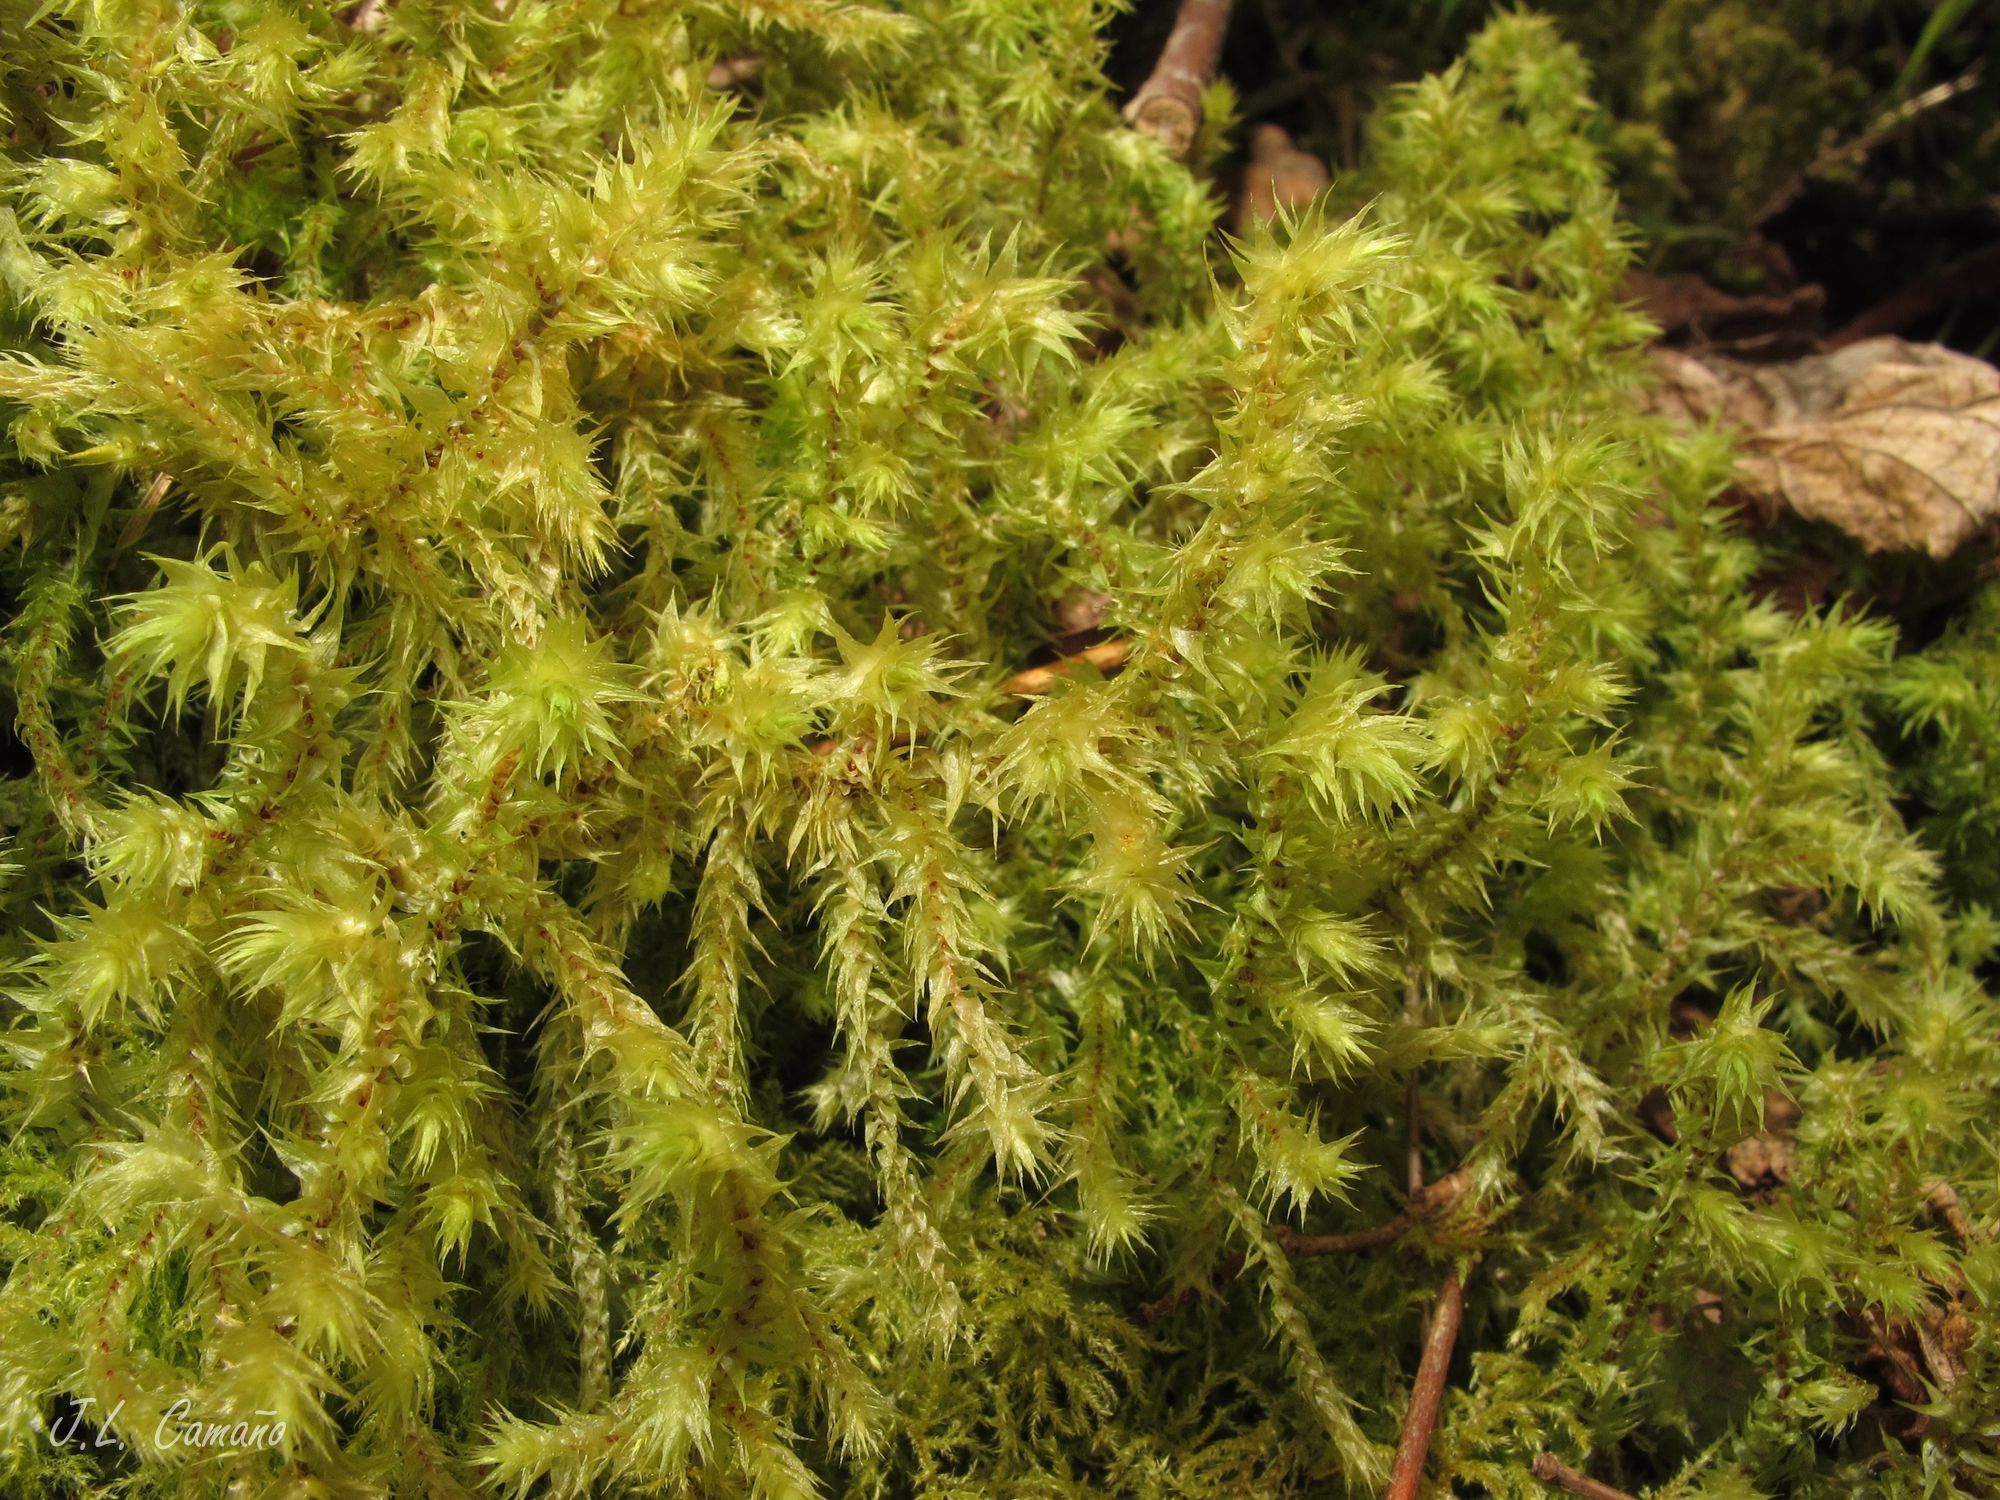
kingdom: Plantae
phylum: Bryophyta
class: Bryopsida
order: Hypnales
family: Hylocomiaceae
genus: Hylocomiadelphus
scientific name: Hylocomiadelphus triquetrus
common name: Rough goose neck moss
